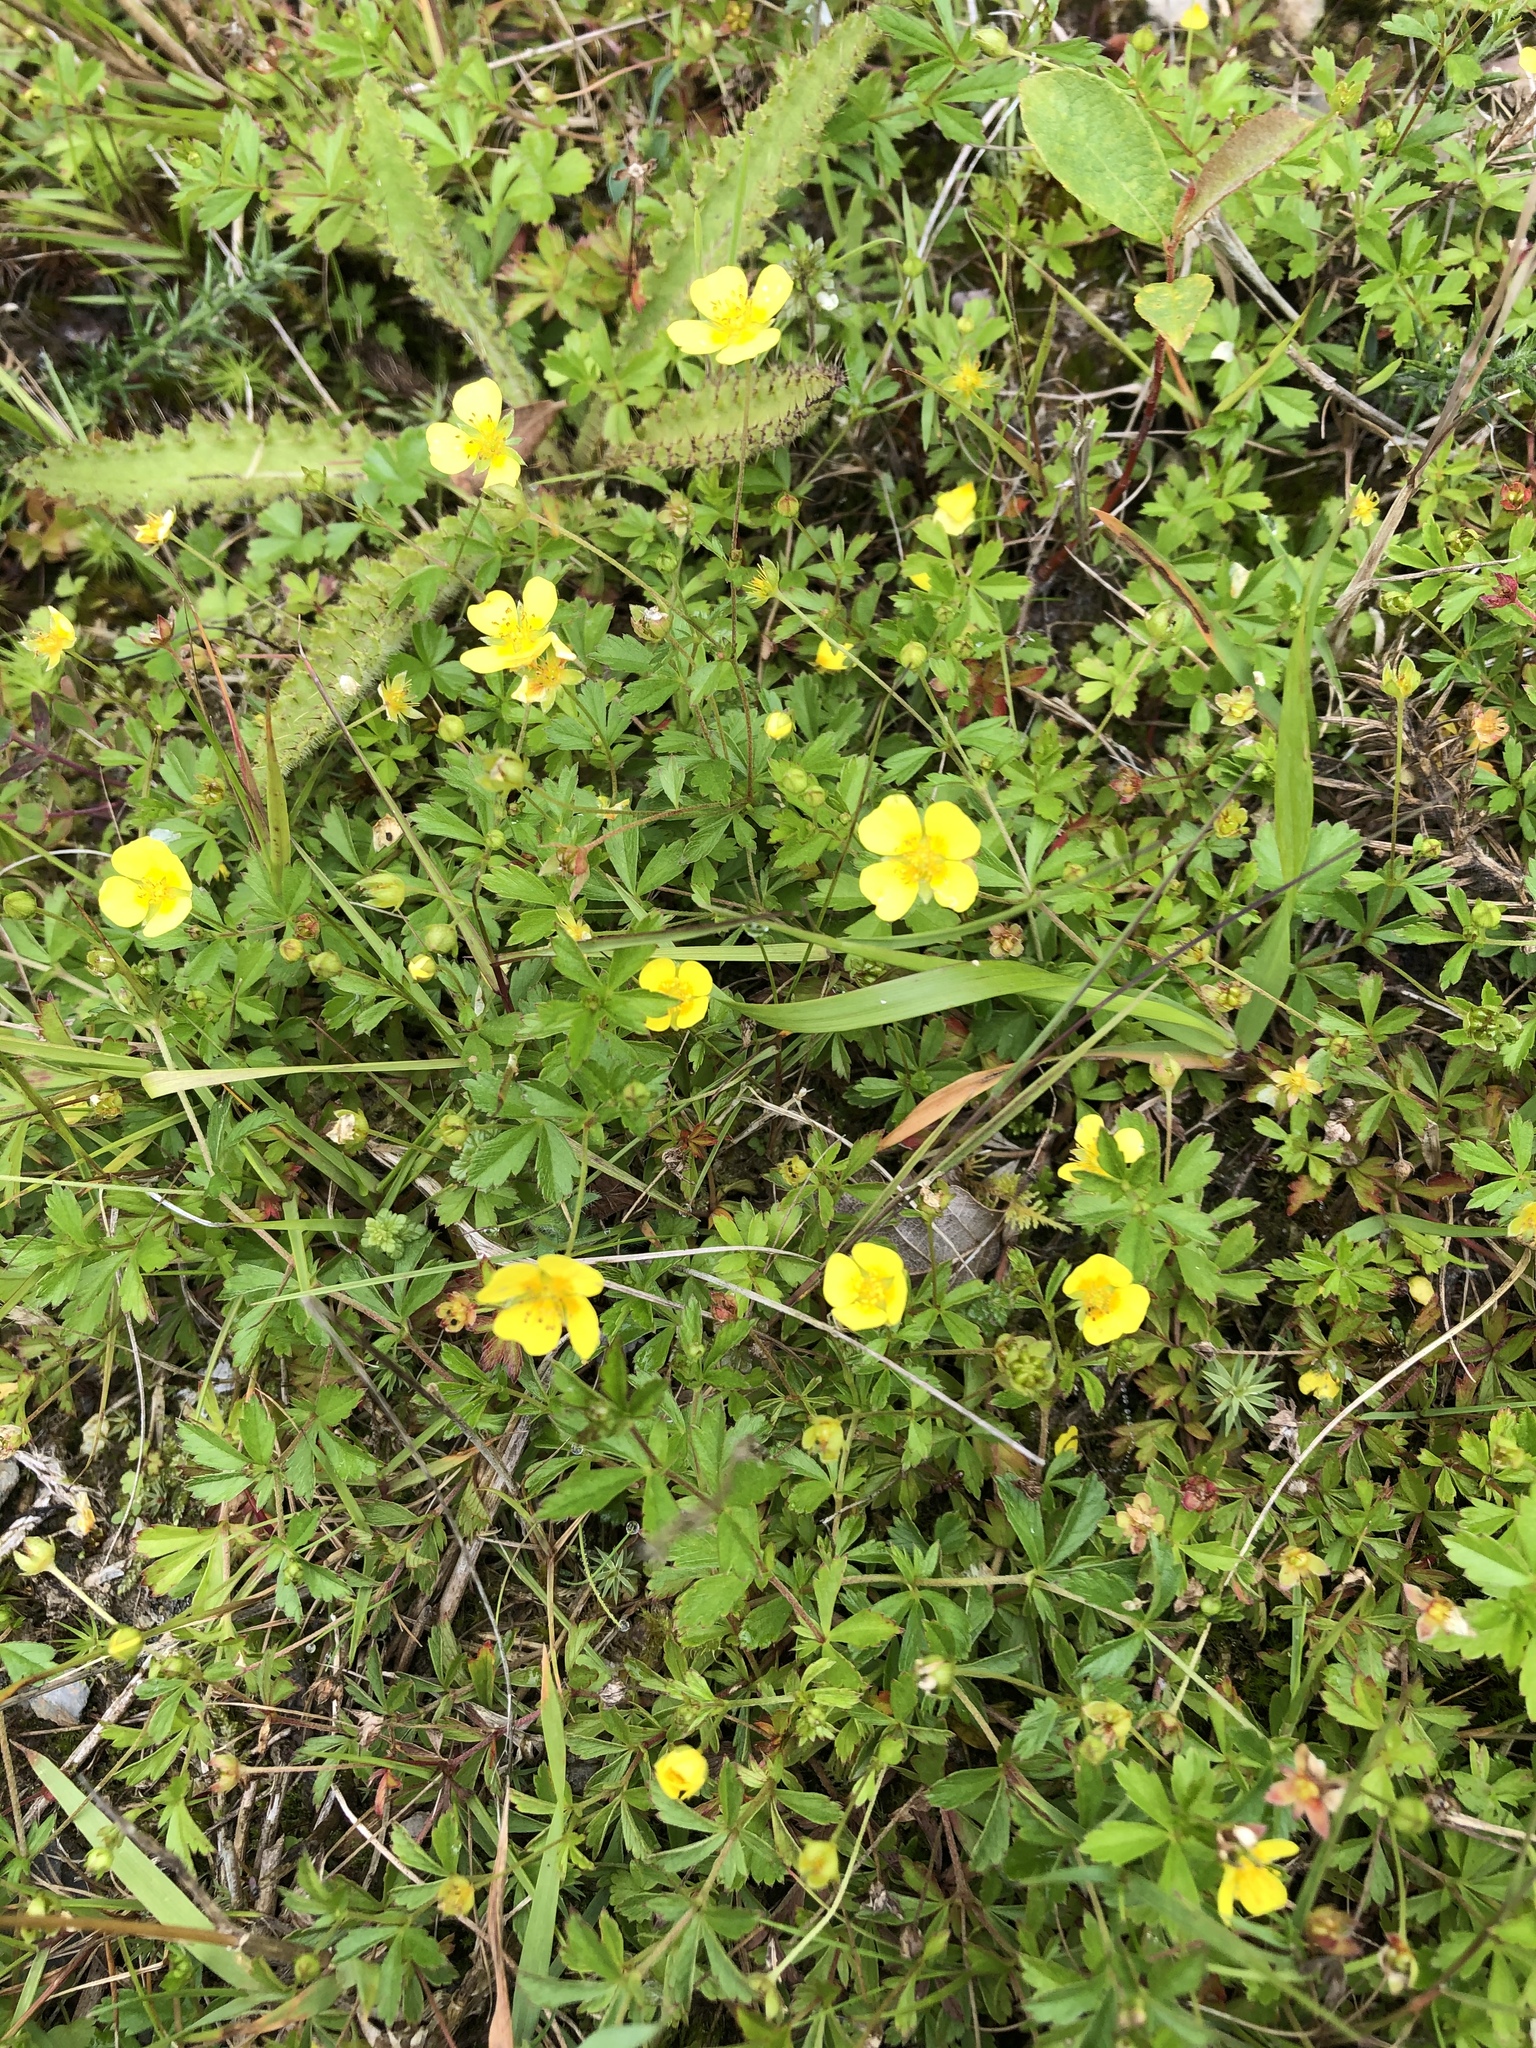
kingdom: Plantae
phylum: Tracheophyta
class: Magnoliopsida
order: Rosales
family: Rosaceae
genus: Potentilla
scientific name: Potentilla erecta
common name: Tormentil
